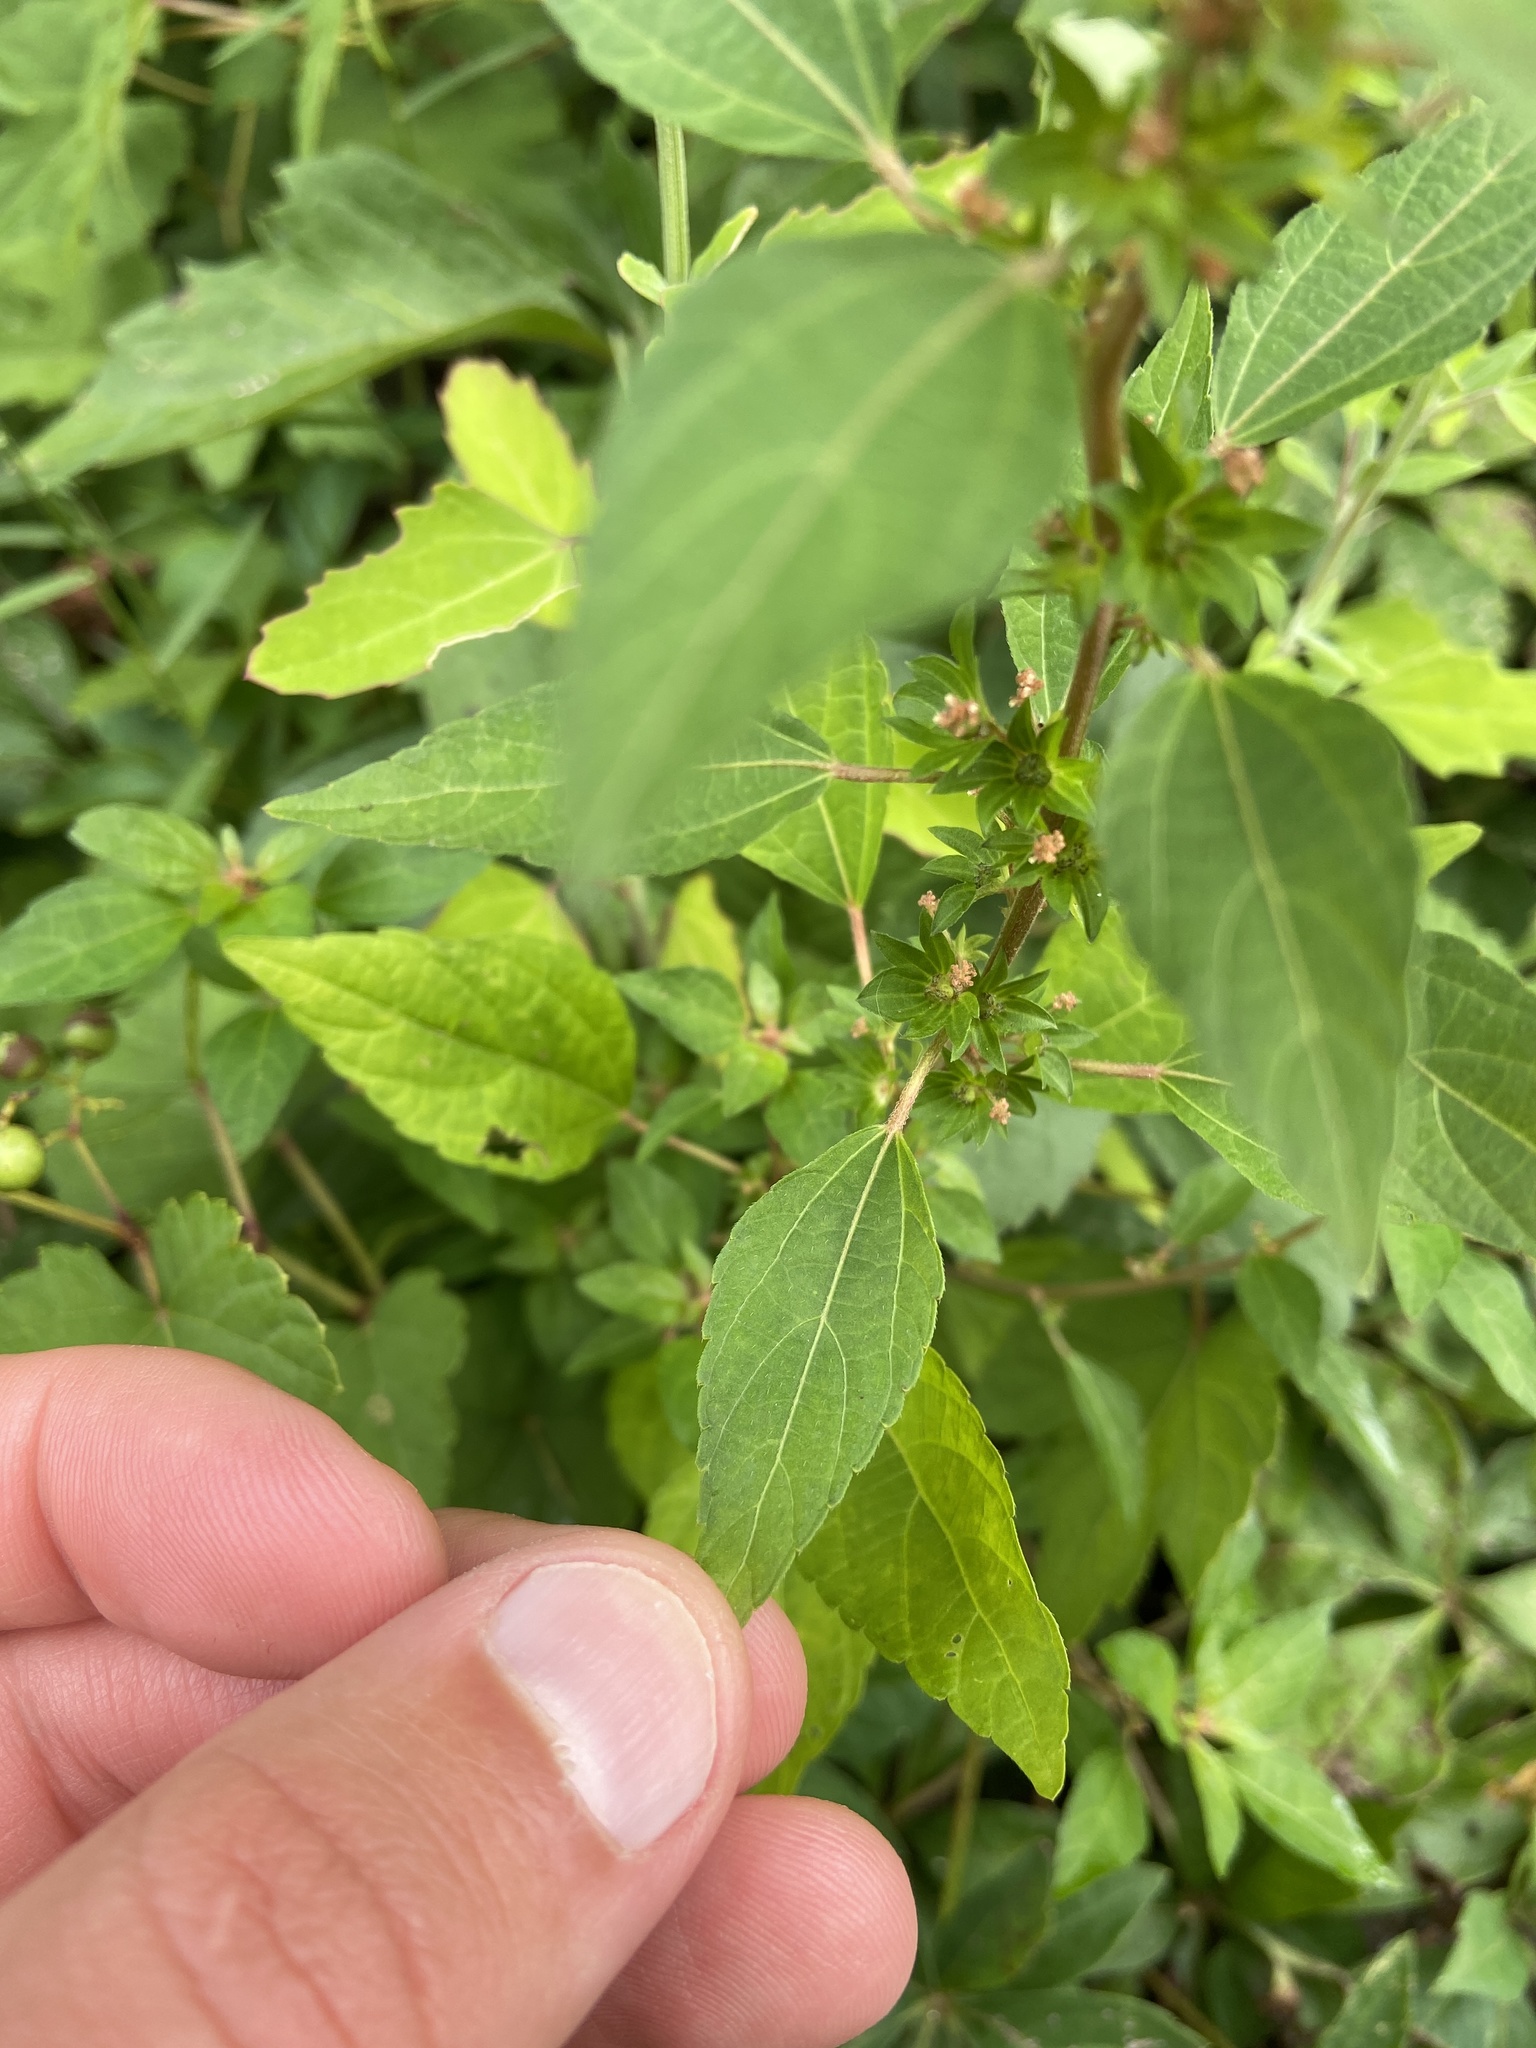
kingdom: Plantae
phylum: Tracheophyta
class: Magnoliopsida
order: Malpighiales
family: Euphorbiaceae
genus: Acalypha
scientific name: Acalypha rhomboidea
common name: Rhombic copperleaf
